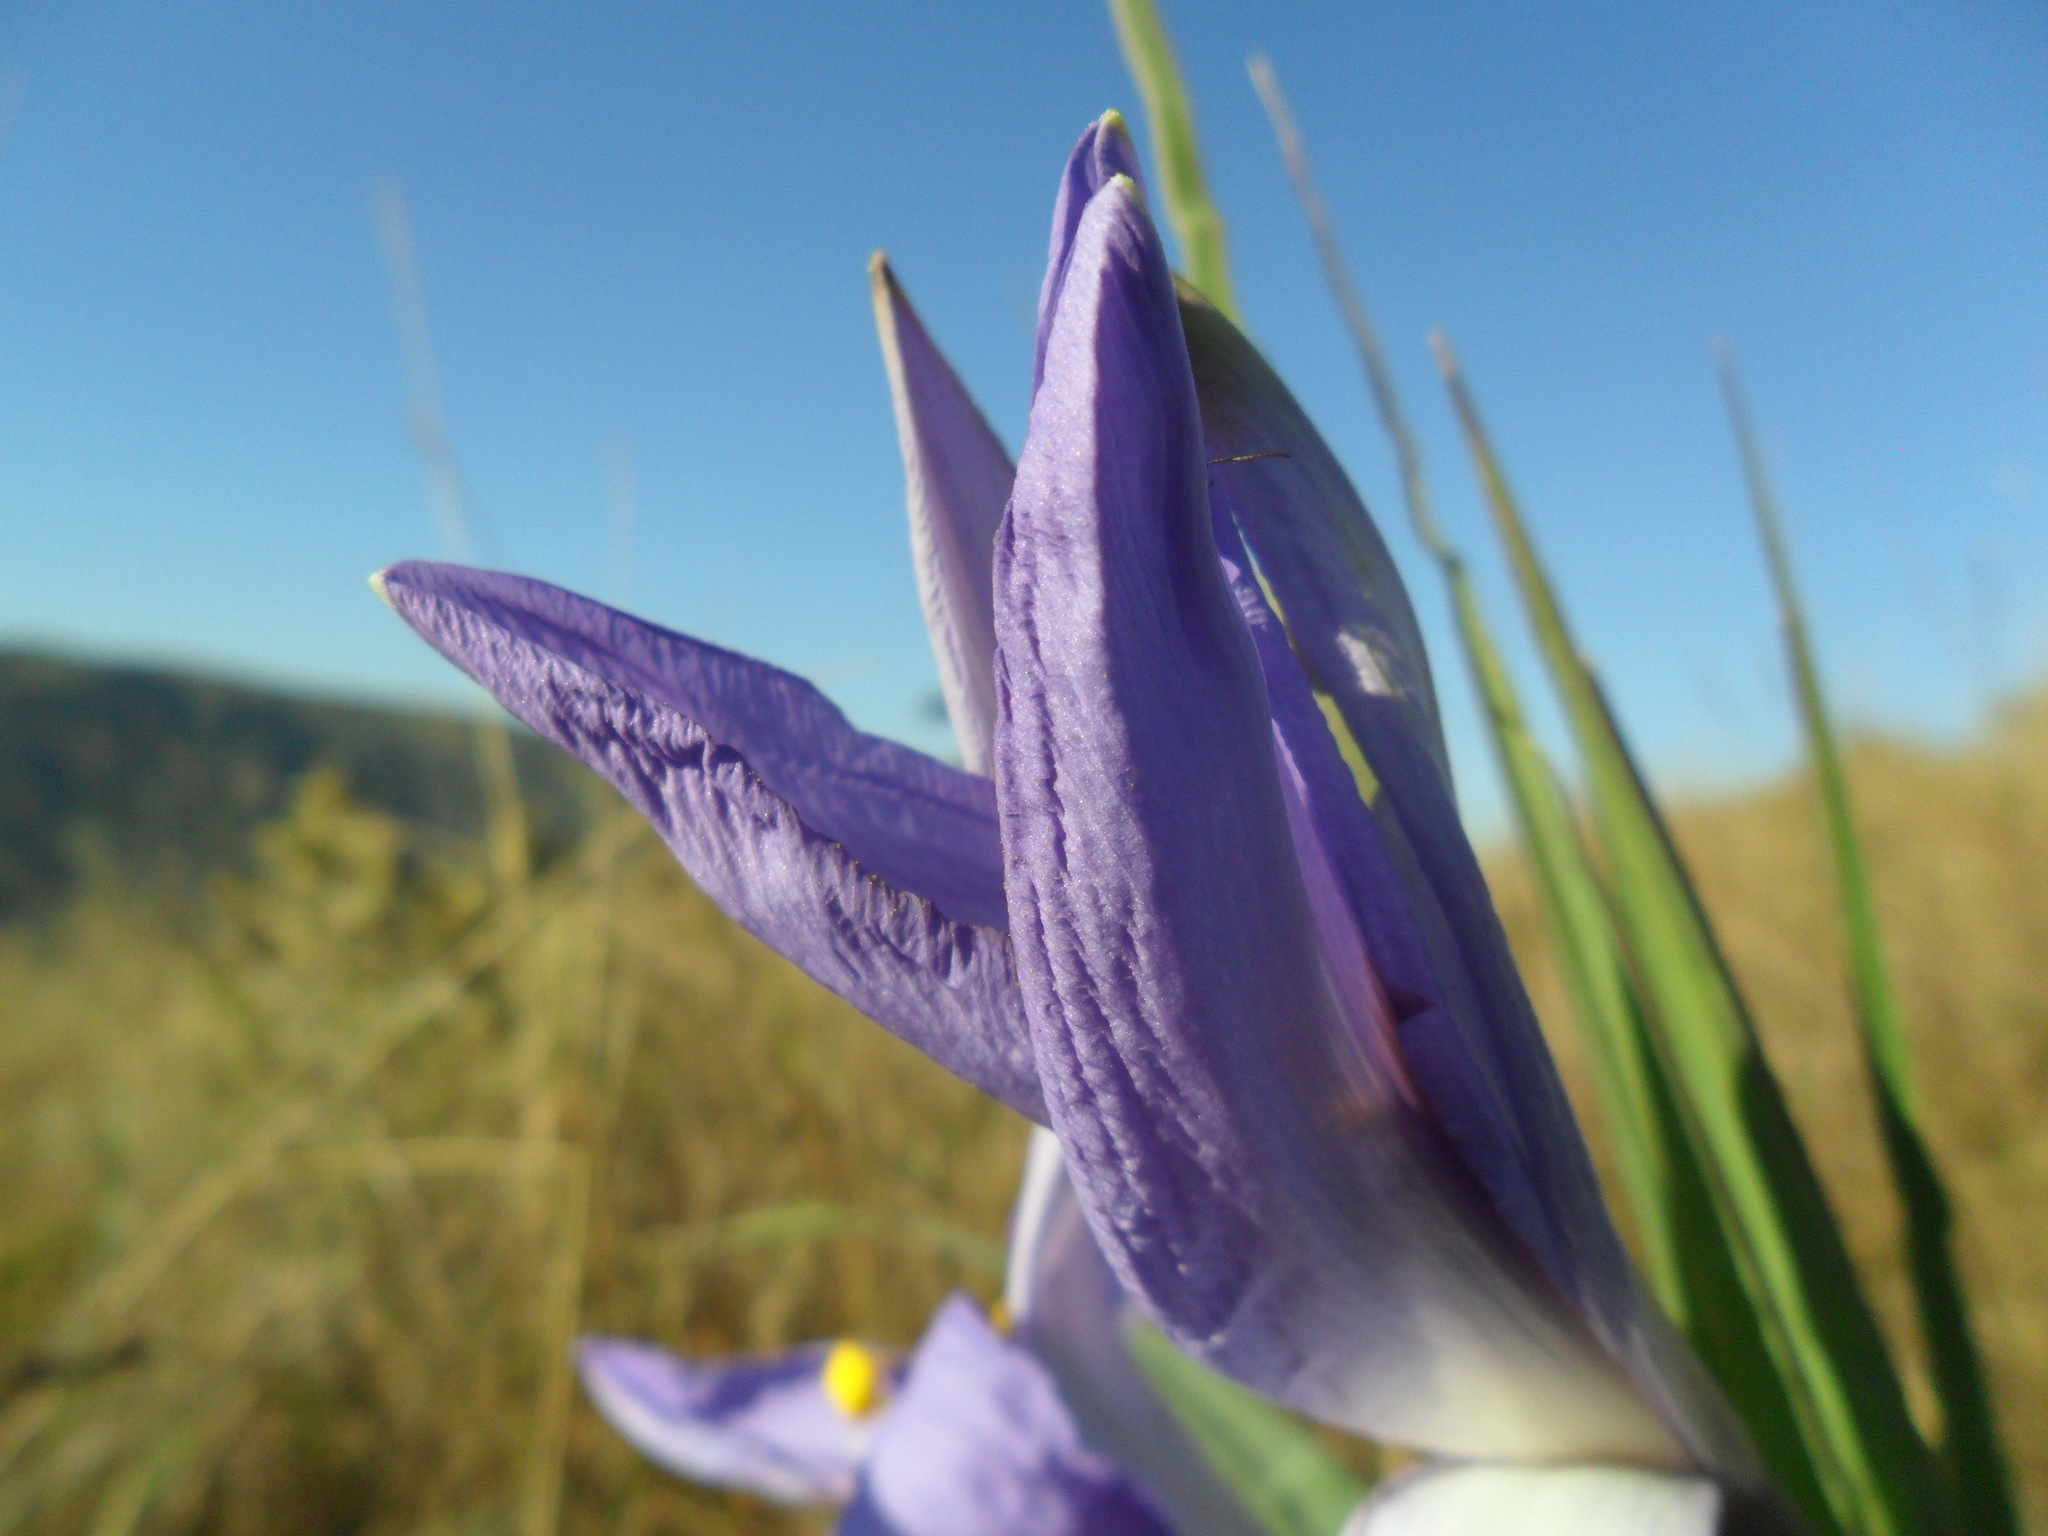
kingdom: Plantae
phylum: Tracheophyta
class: Liliopsida
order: Pandanales
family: Velloziaceae
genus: Vellozia
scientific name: Vellozia glauca
